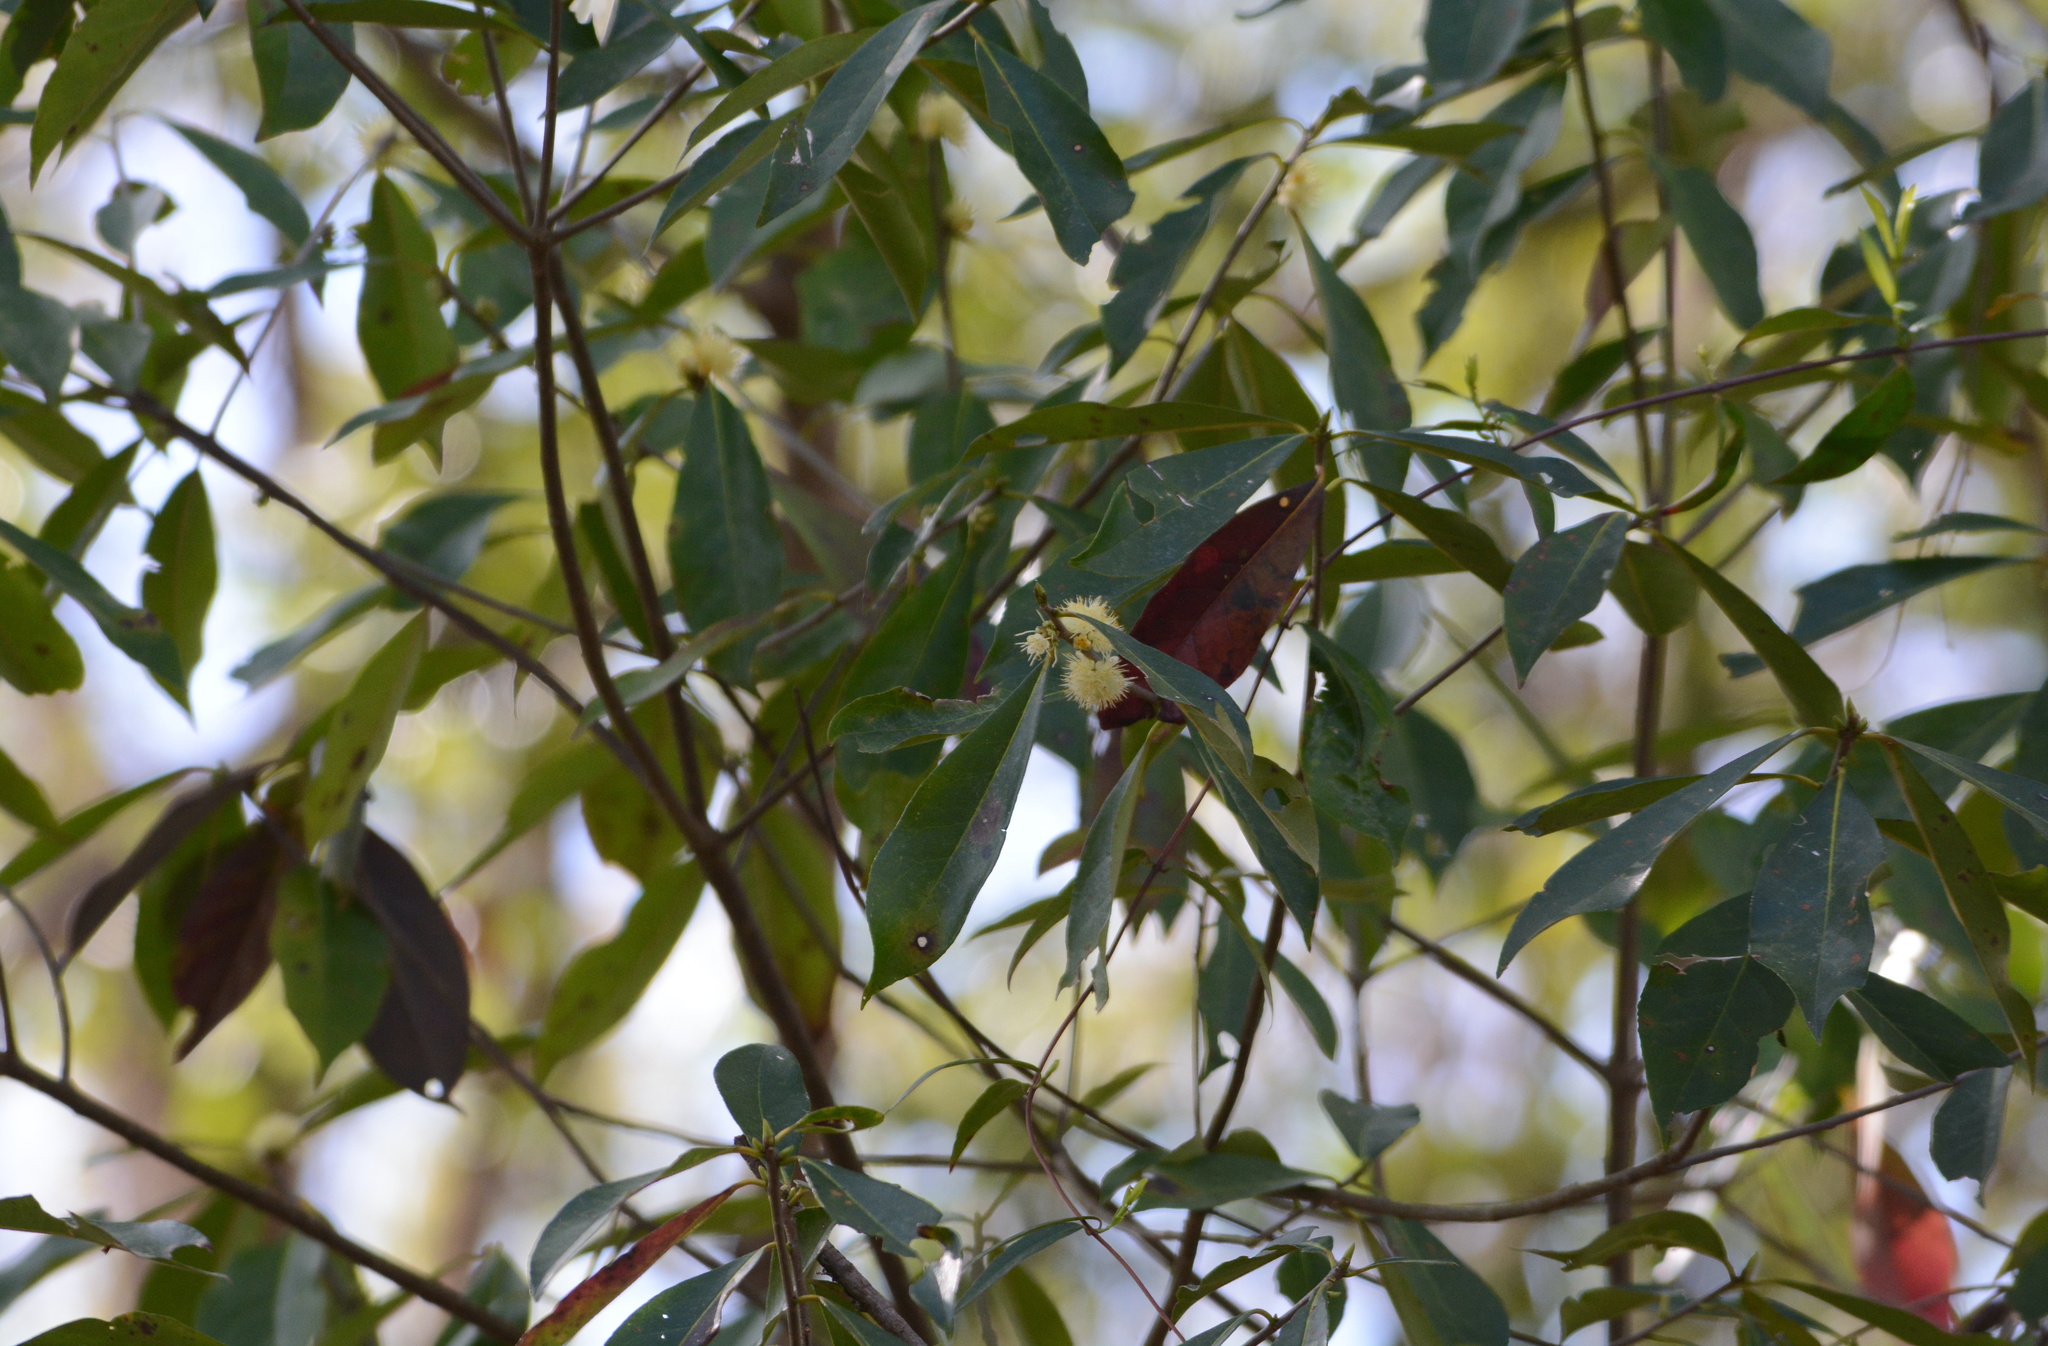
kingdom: Plantae
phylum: Tracheophyta
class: Magnoliopsida
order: Ericales
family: Symplocaceae
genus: Symplocos
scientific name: Symplocos tinctoria
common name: Horse-sugar
